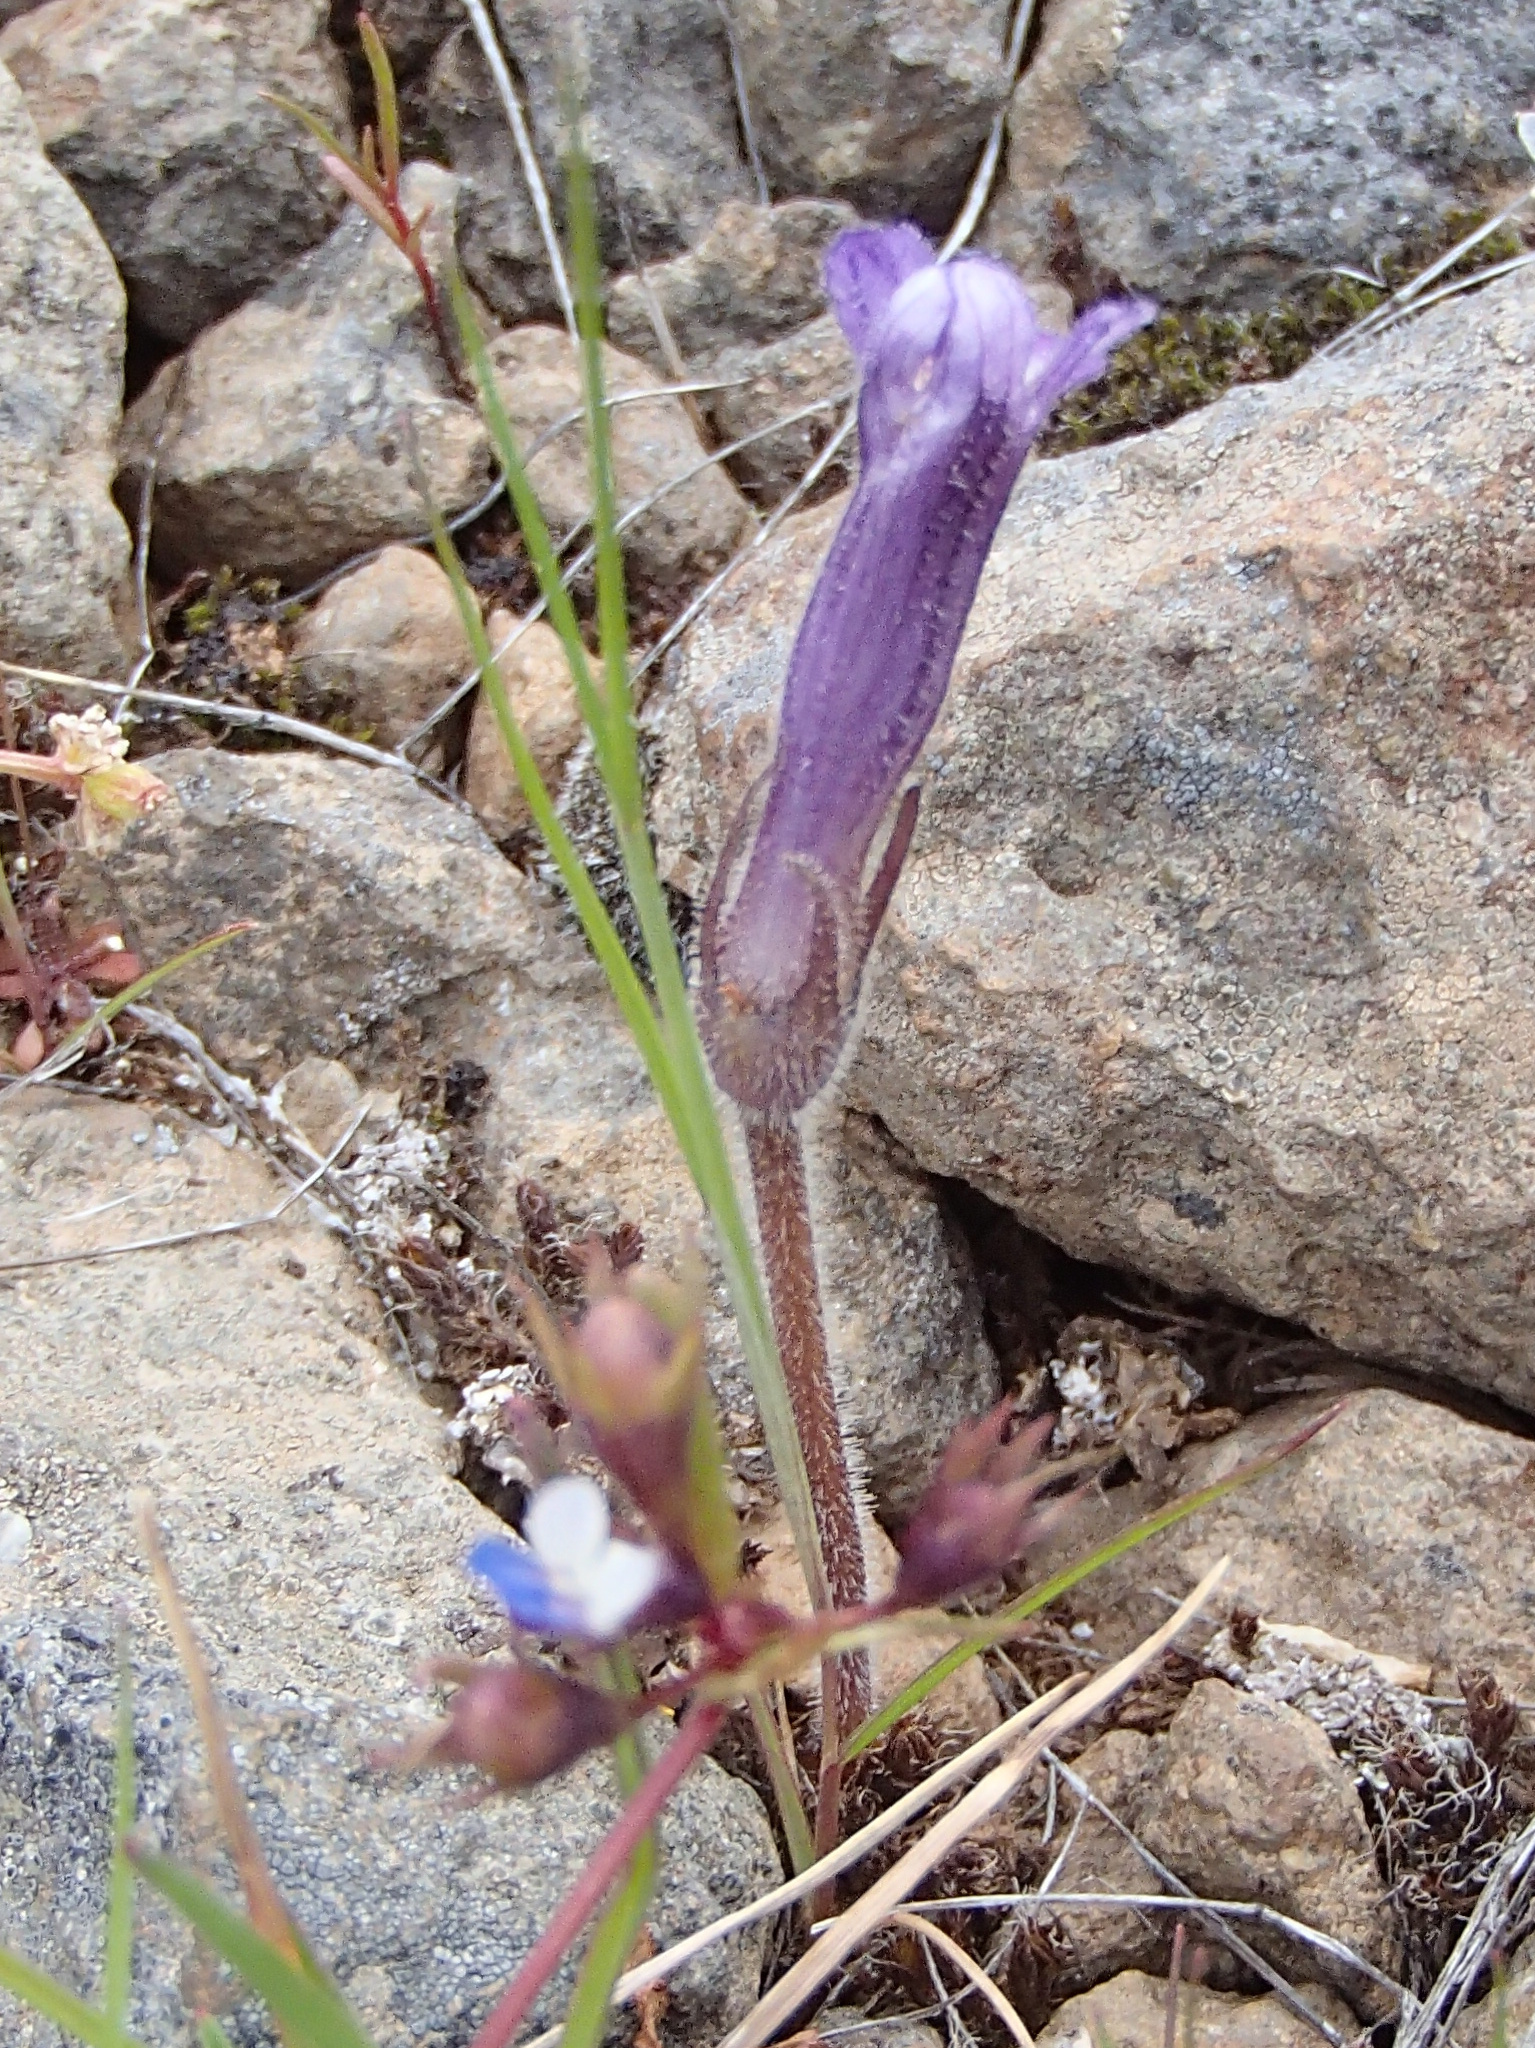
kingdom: Plantae
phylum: Tracheophyta
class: Magnoliopsida
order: Lamiales
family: Orobanchaceae
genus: Aphyllon
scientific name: Aphyllon uniflorum
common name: One-flowered broomrape
